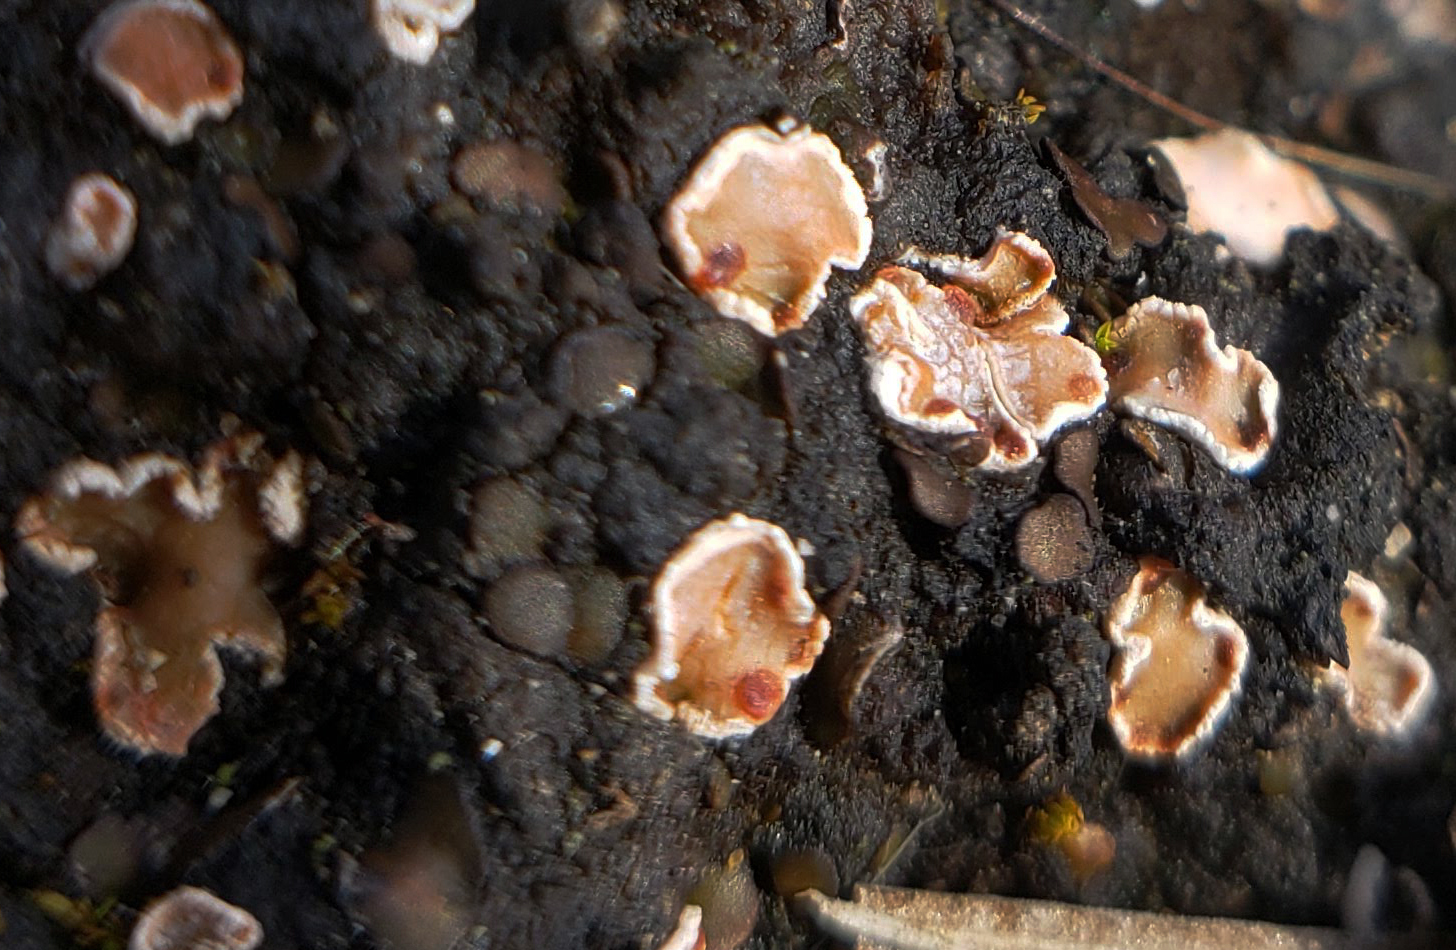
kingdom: Fungi
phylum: Ascomycota
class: Lecanoromycetes
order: Lecanorales
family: Psoraceae
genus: Psora
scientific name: Psora decipiens
